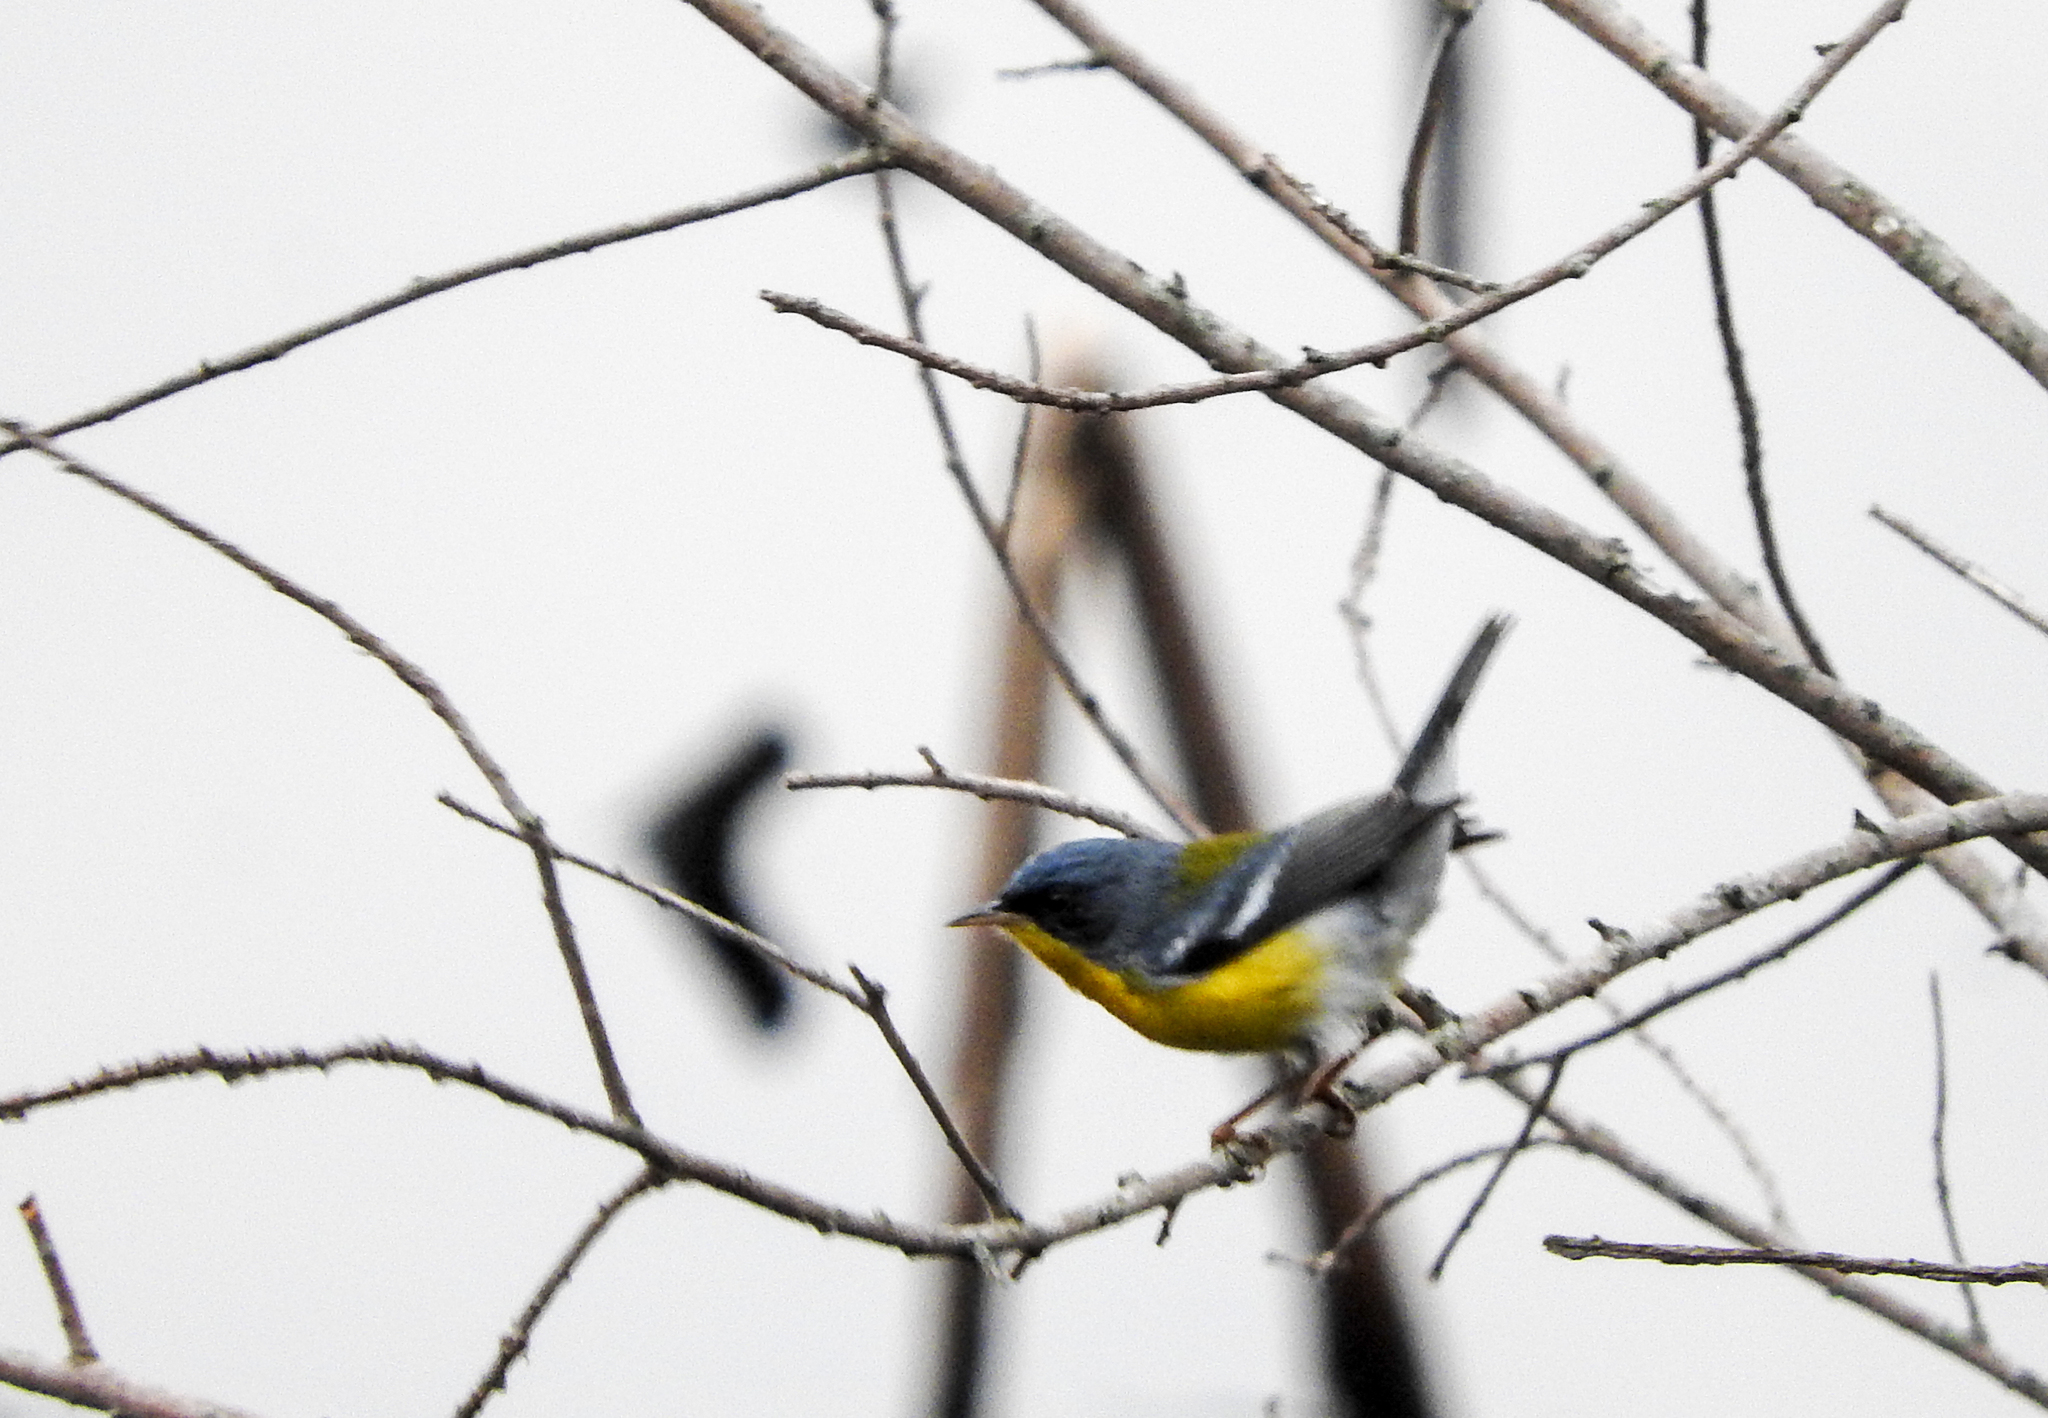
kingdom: Animalia
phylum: Chordata
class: Aves
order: Passeriformes
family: Parulidae
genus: Setophaga
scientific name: Setophaga pitiayumi
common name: Tropical parula
